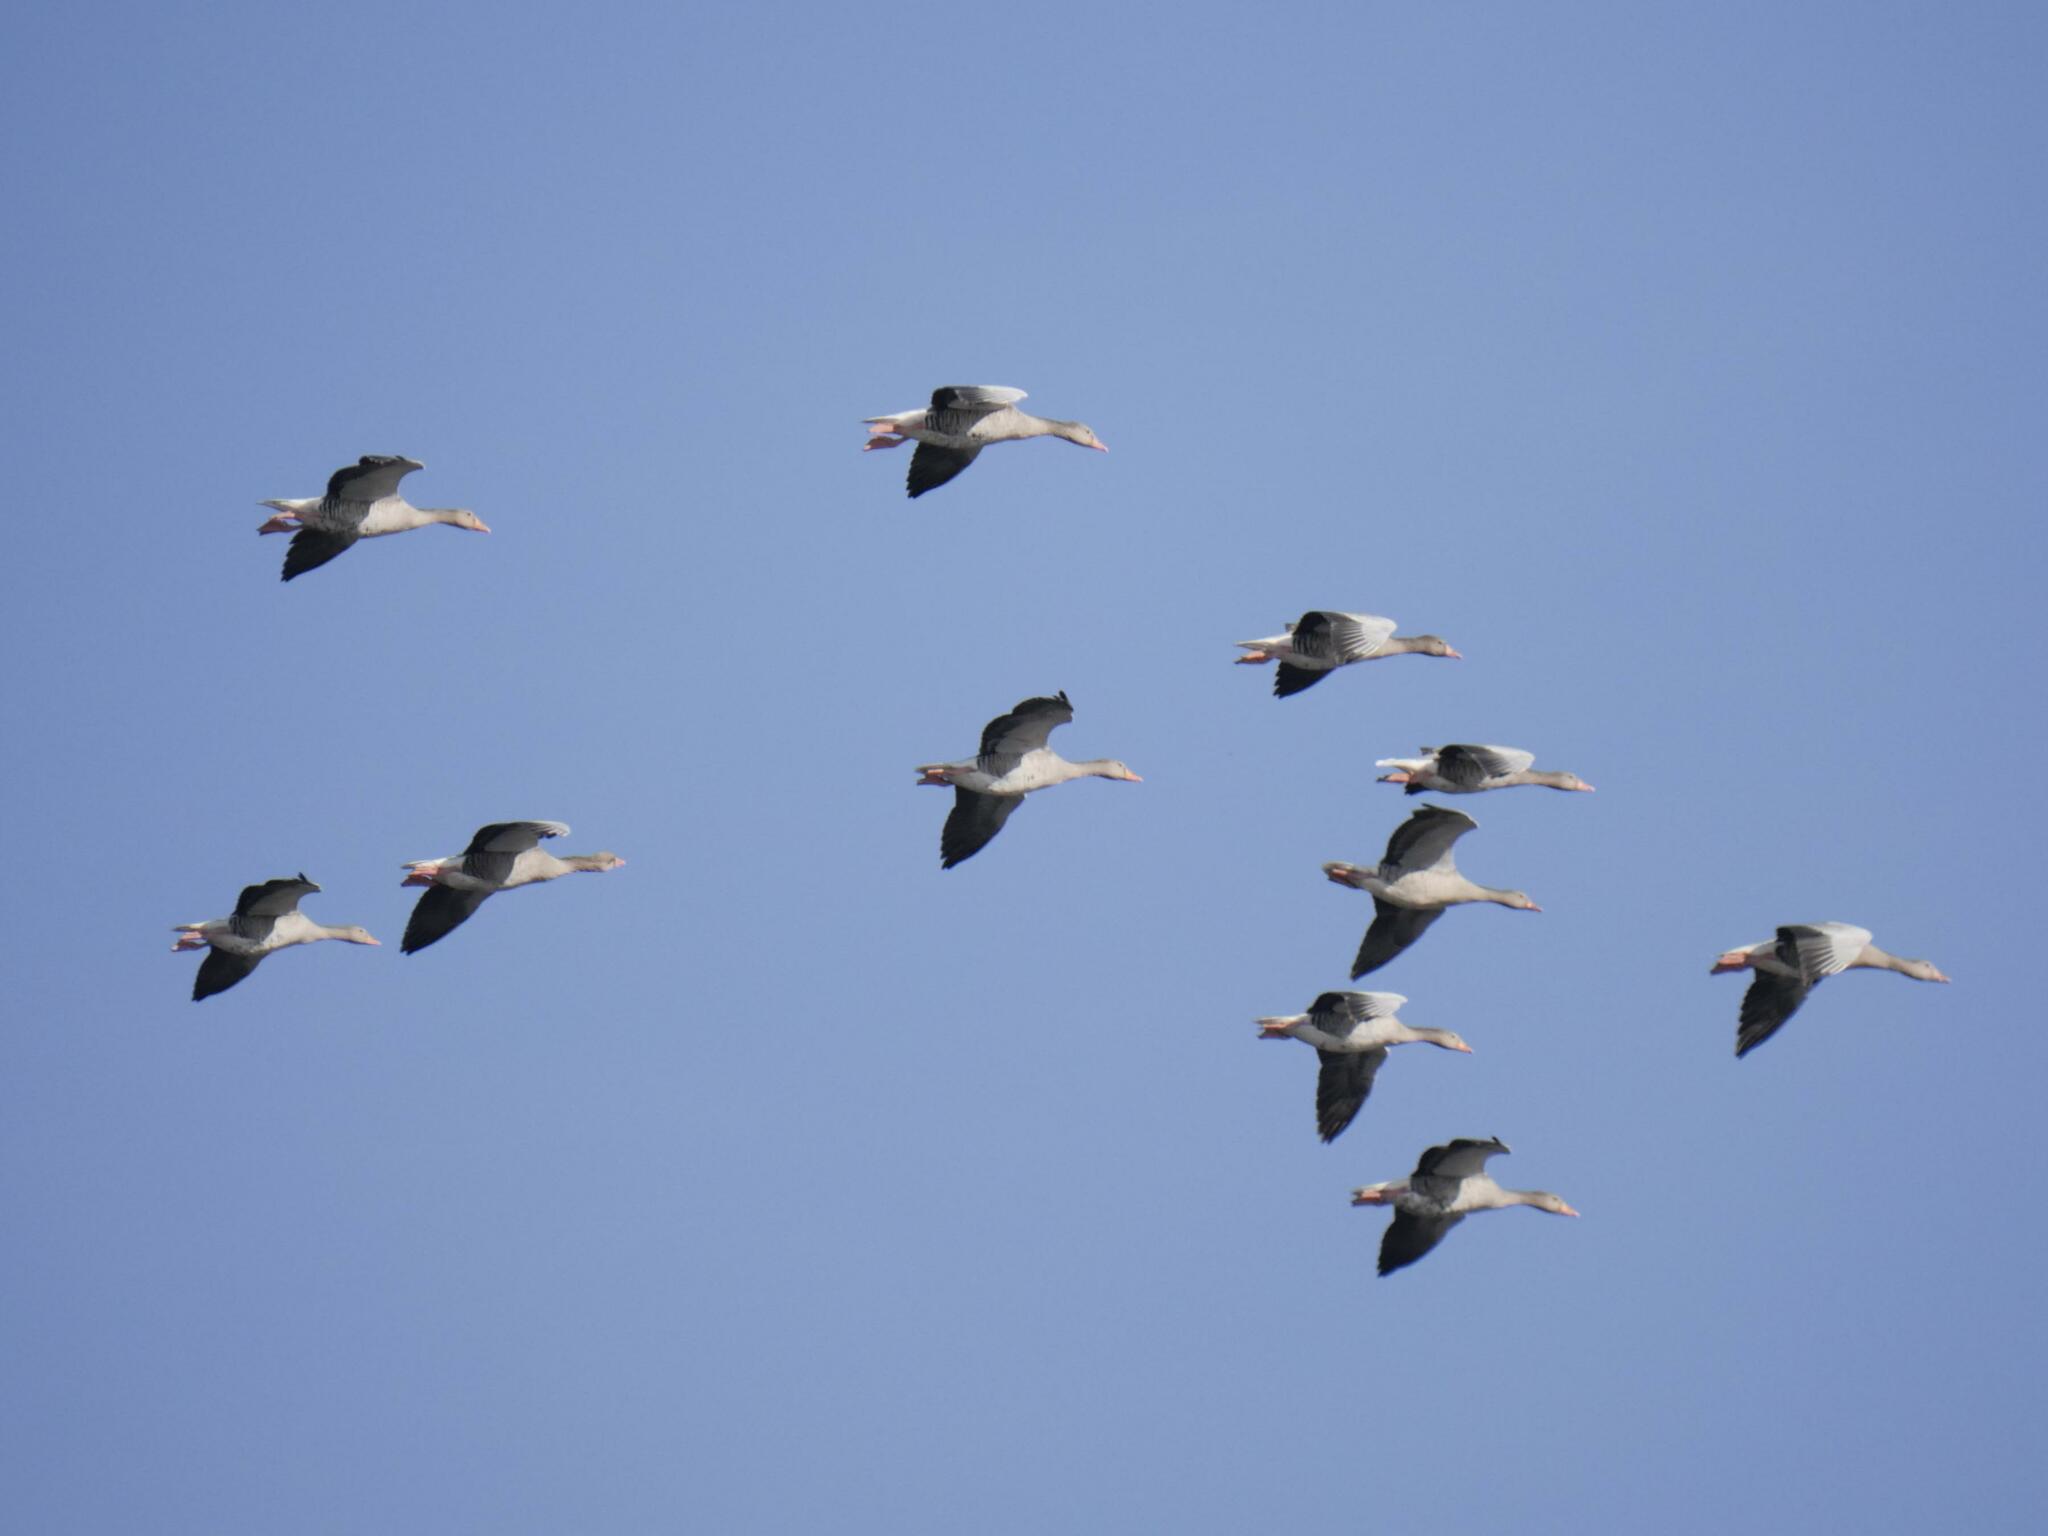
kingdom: Animalia
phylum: Chordata
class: Aves
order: Anseriformes
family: Anatidae
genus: Anser
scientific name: Anser anser
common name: Greylag goose
